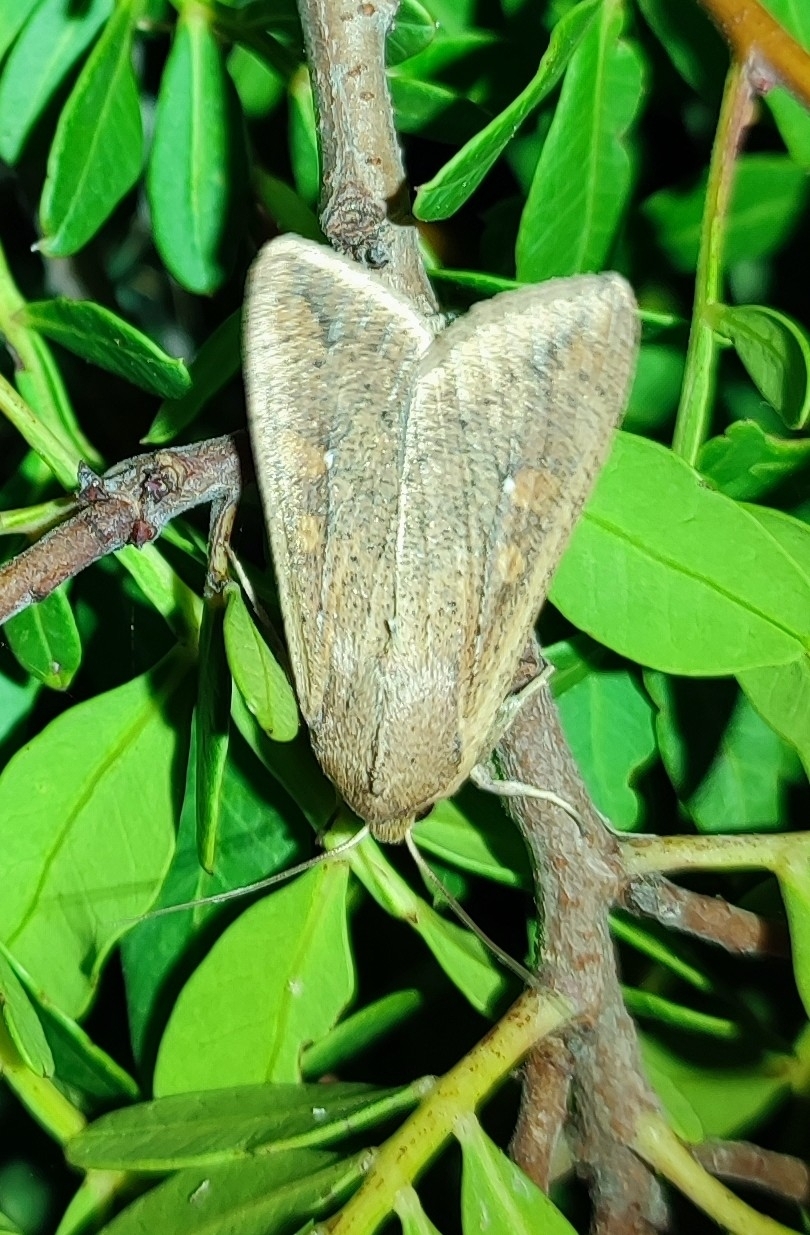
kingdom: Animalia
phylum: Arthropoda
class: Insecta
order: Lepidoptera
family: Noctuidae
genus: Mythimna
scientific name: Mythimna unipuncta
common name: White-speck
